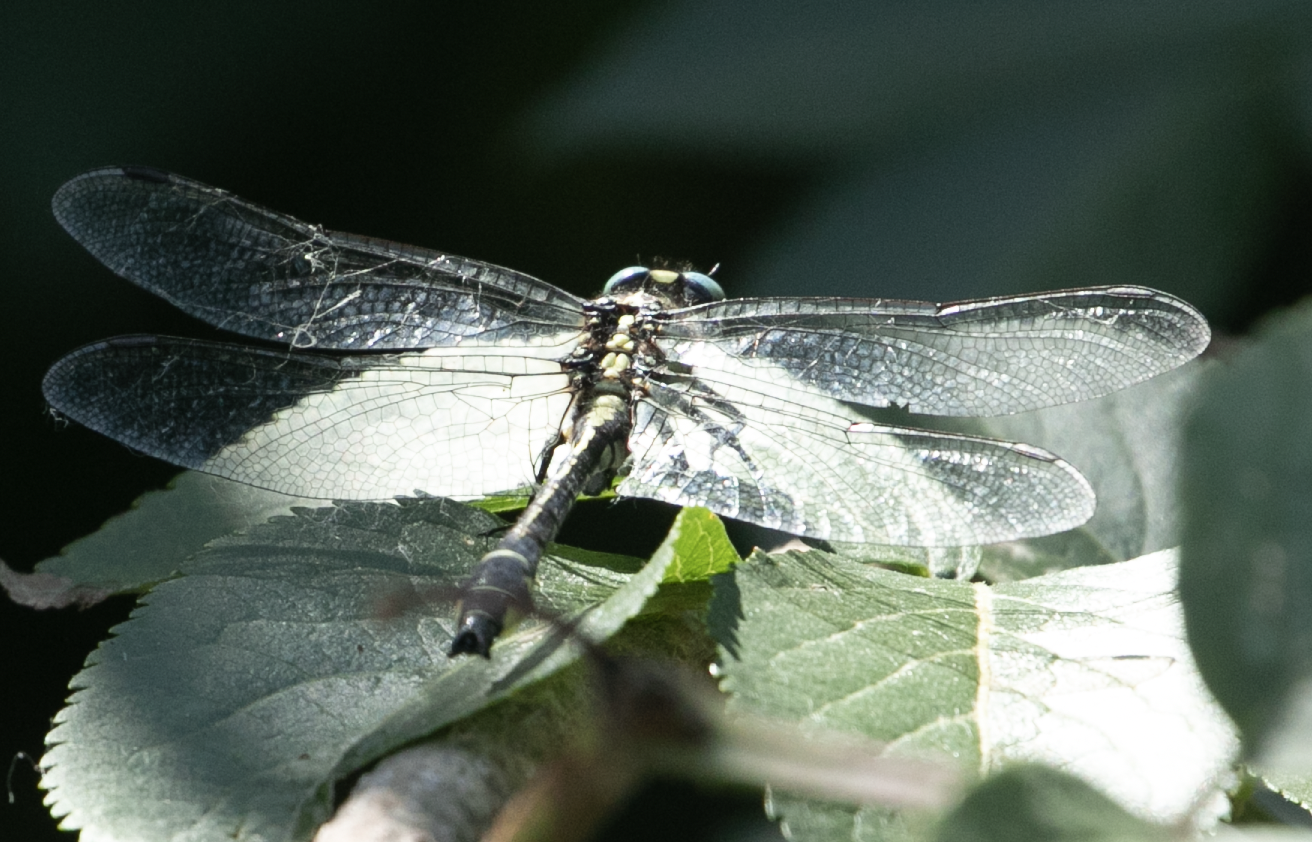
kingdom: Animalia
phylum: Arthropoda
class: Insecta
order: Odonata
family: Gomphidae
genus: Gomphus
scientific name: Gomphus vulgatissimus
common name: Club-tailed dragonfly
